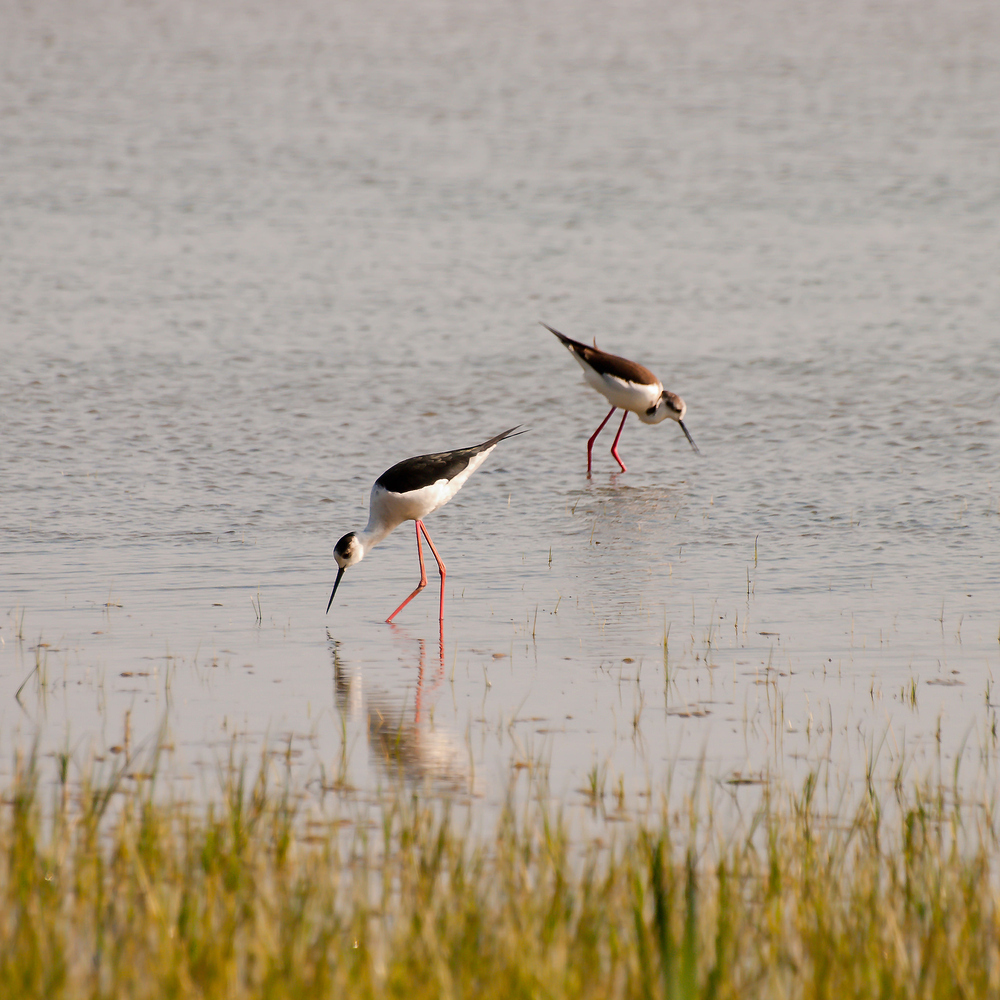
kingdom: Animalia
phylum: Chordata
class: Aves
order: Charadriiformes
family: Recurvirostridae
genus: Himantopus
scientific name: Himantopus himantopus
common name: Black-winged stilt
